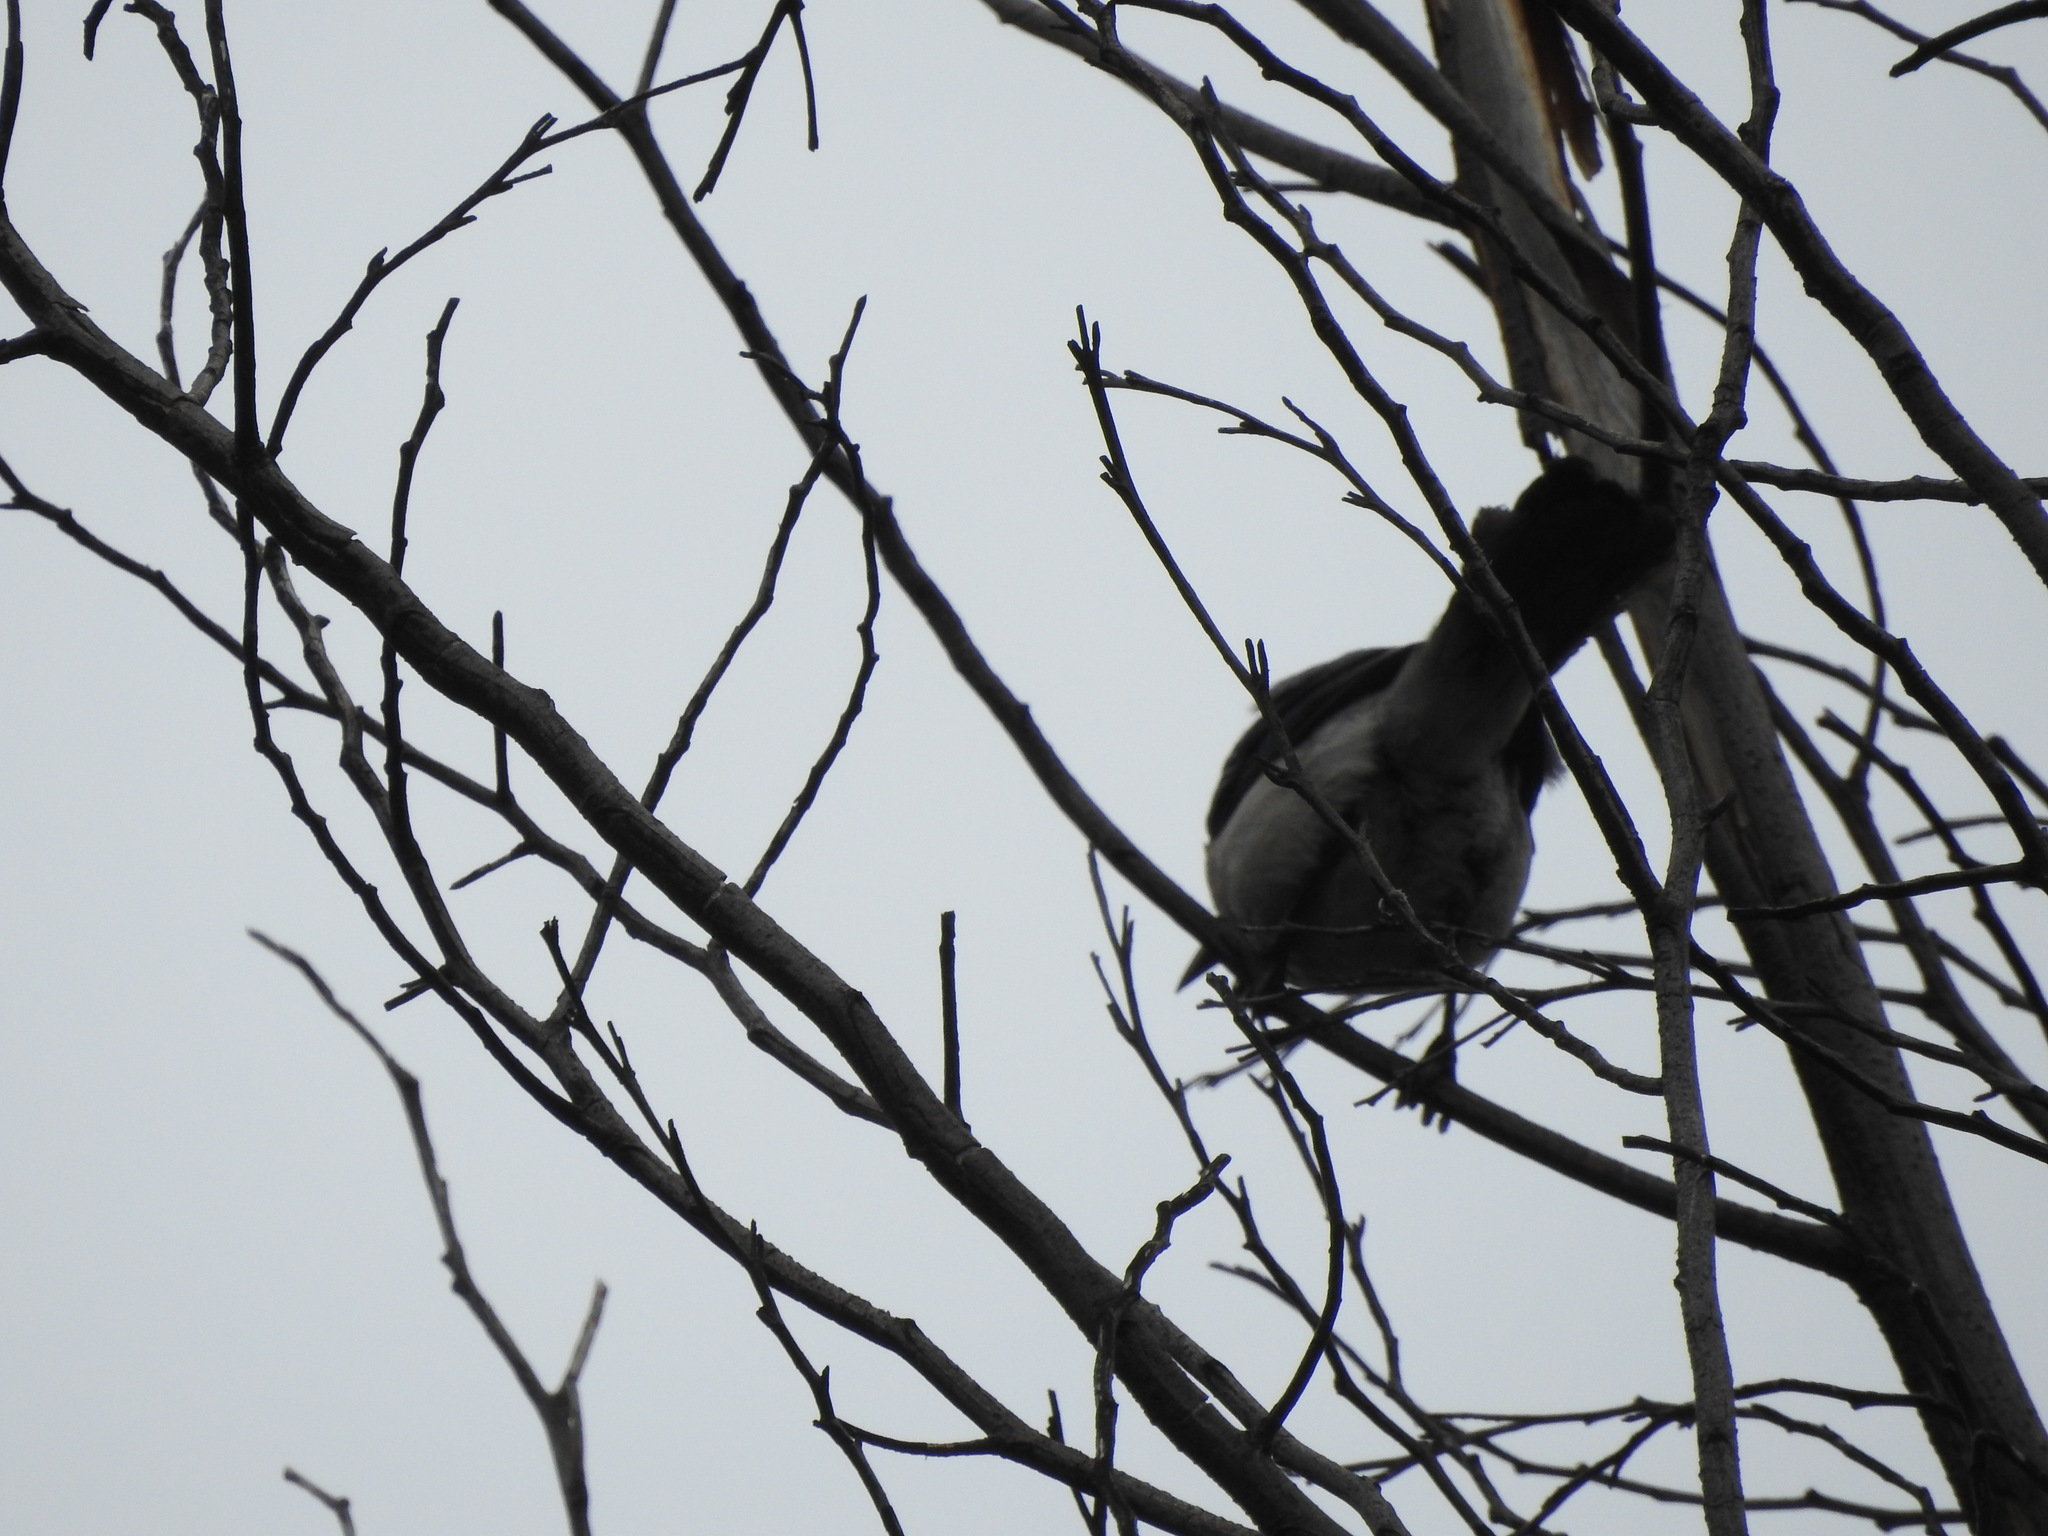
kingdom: Animalia
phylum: Chordata
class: Aves
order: Passeriformes
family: Mimidae
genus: Mimus
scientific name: Mimus polyglottos
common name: Northern mockingbird
